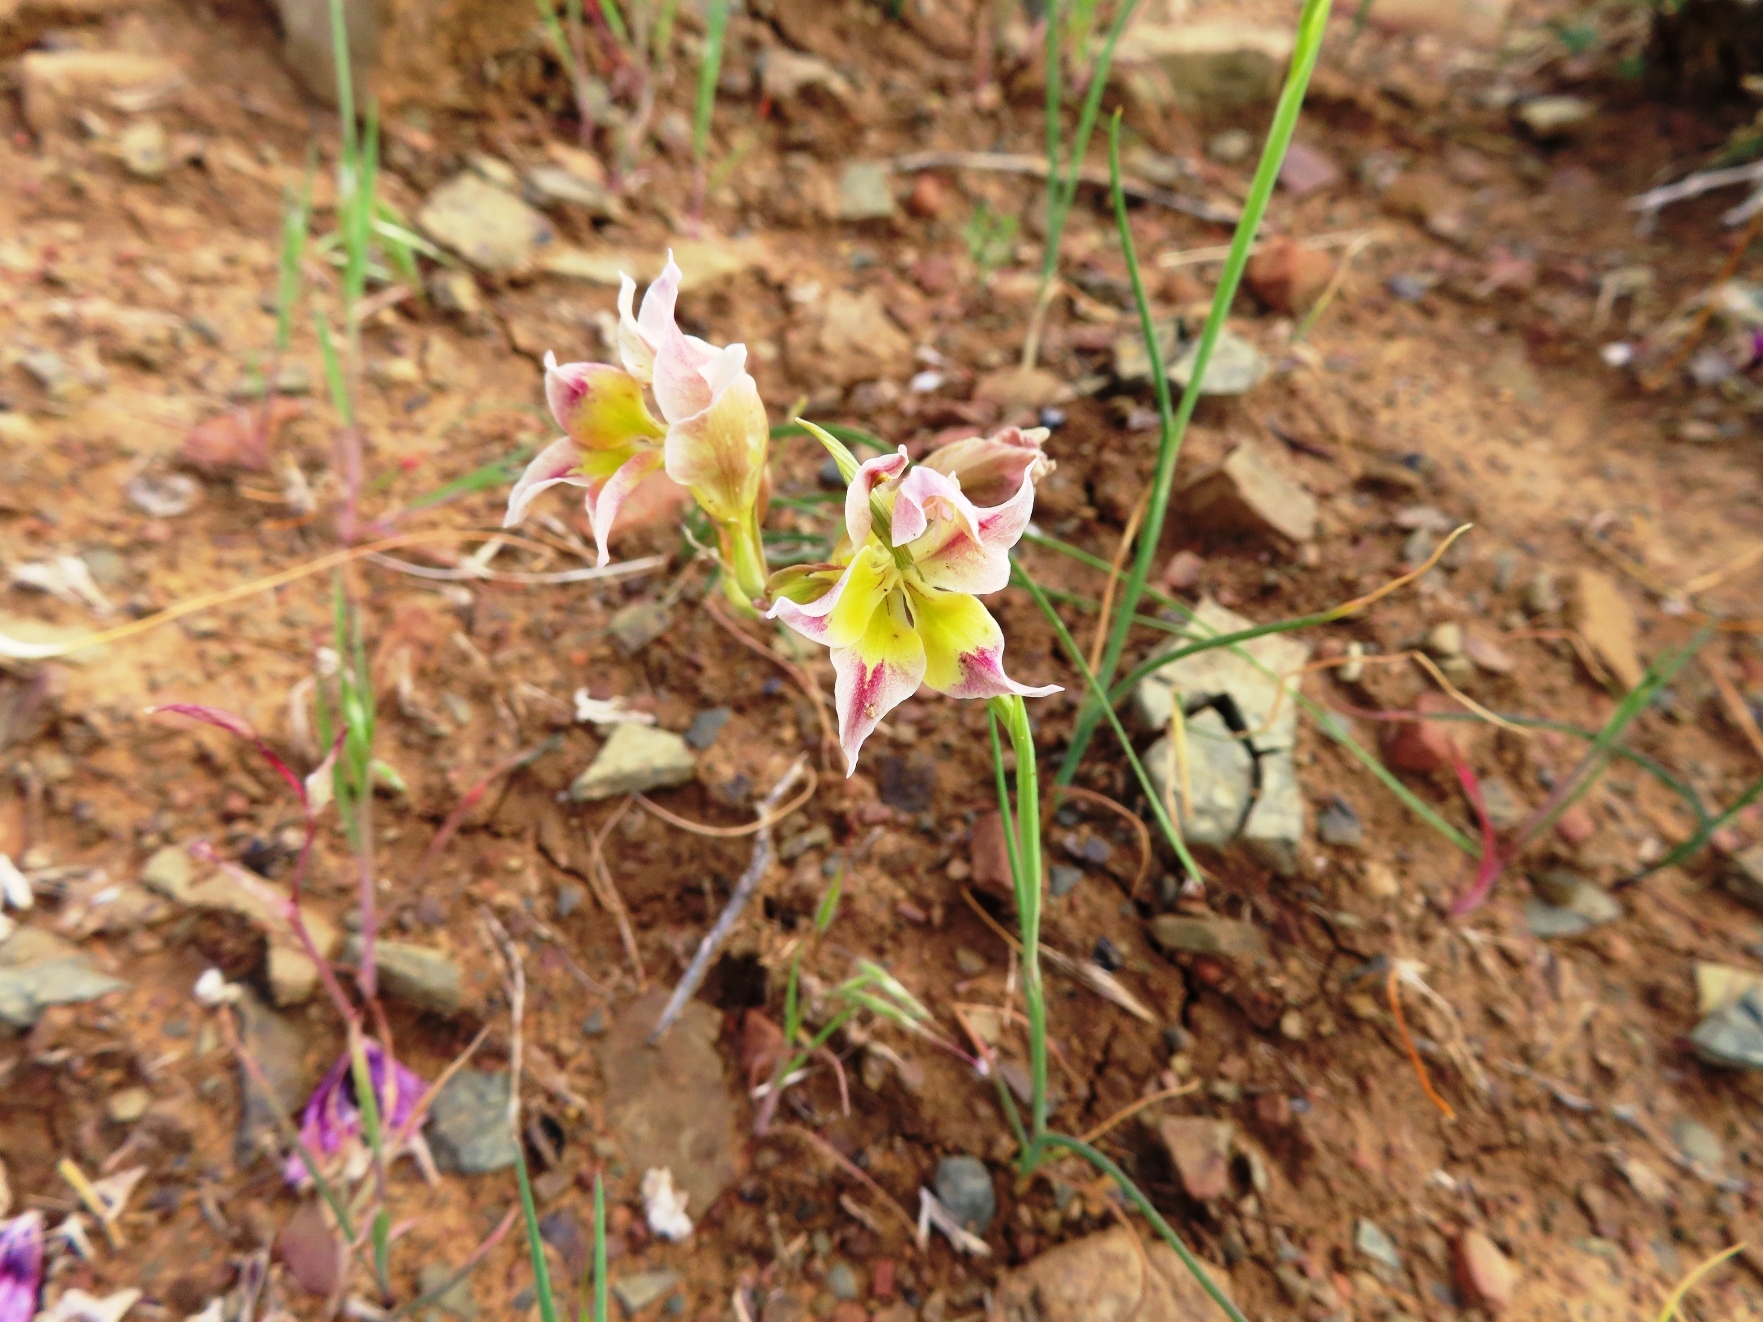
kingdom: Plantae
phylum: Tracheophyta
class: Liliopsida
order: Asparagales
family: Iridaceae
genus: Gladiolus
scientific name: Gladiolus scullyi
